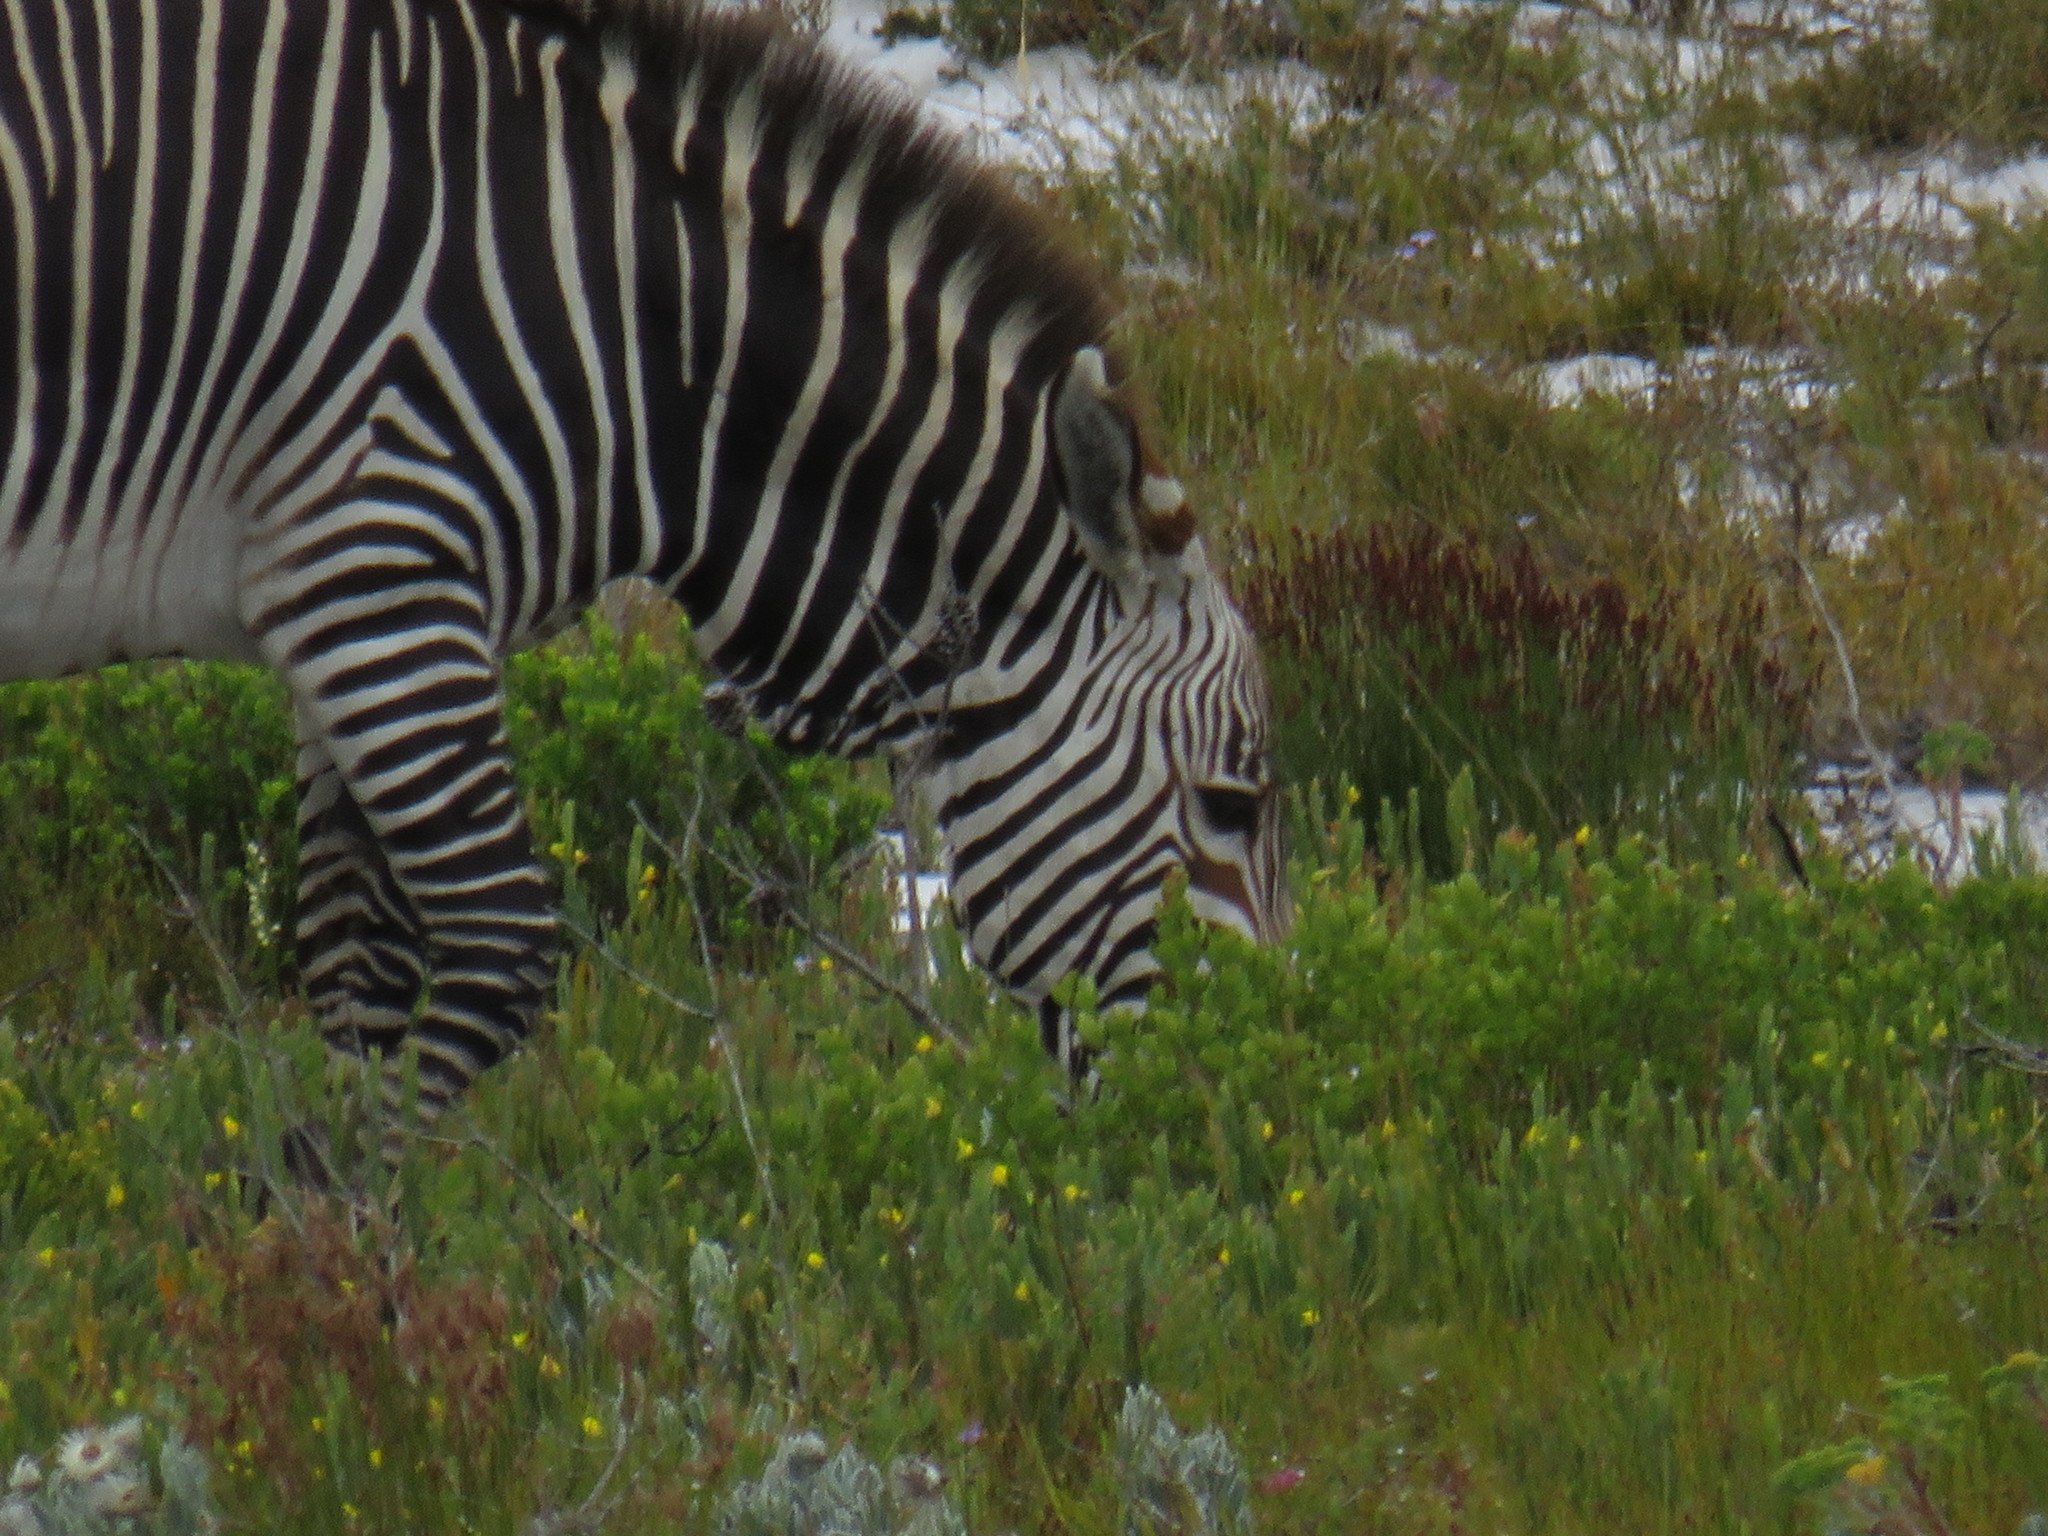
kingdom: Animalia
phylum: Chordata
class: Mammalia
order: Perissodactyla
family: Equidae
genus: Equus
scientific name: Equus zebra
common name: Mountain zebra
